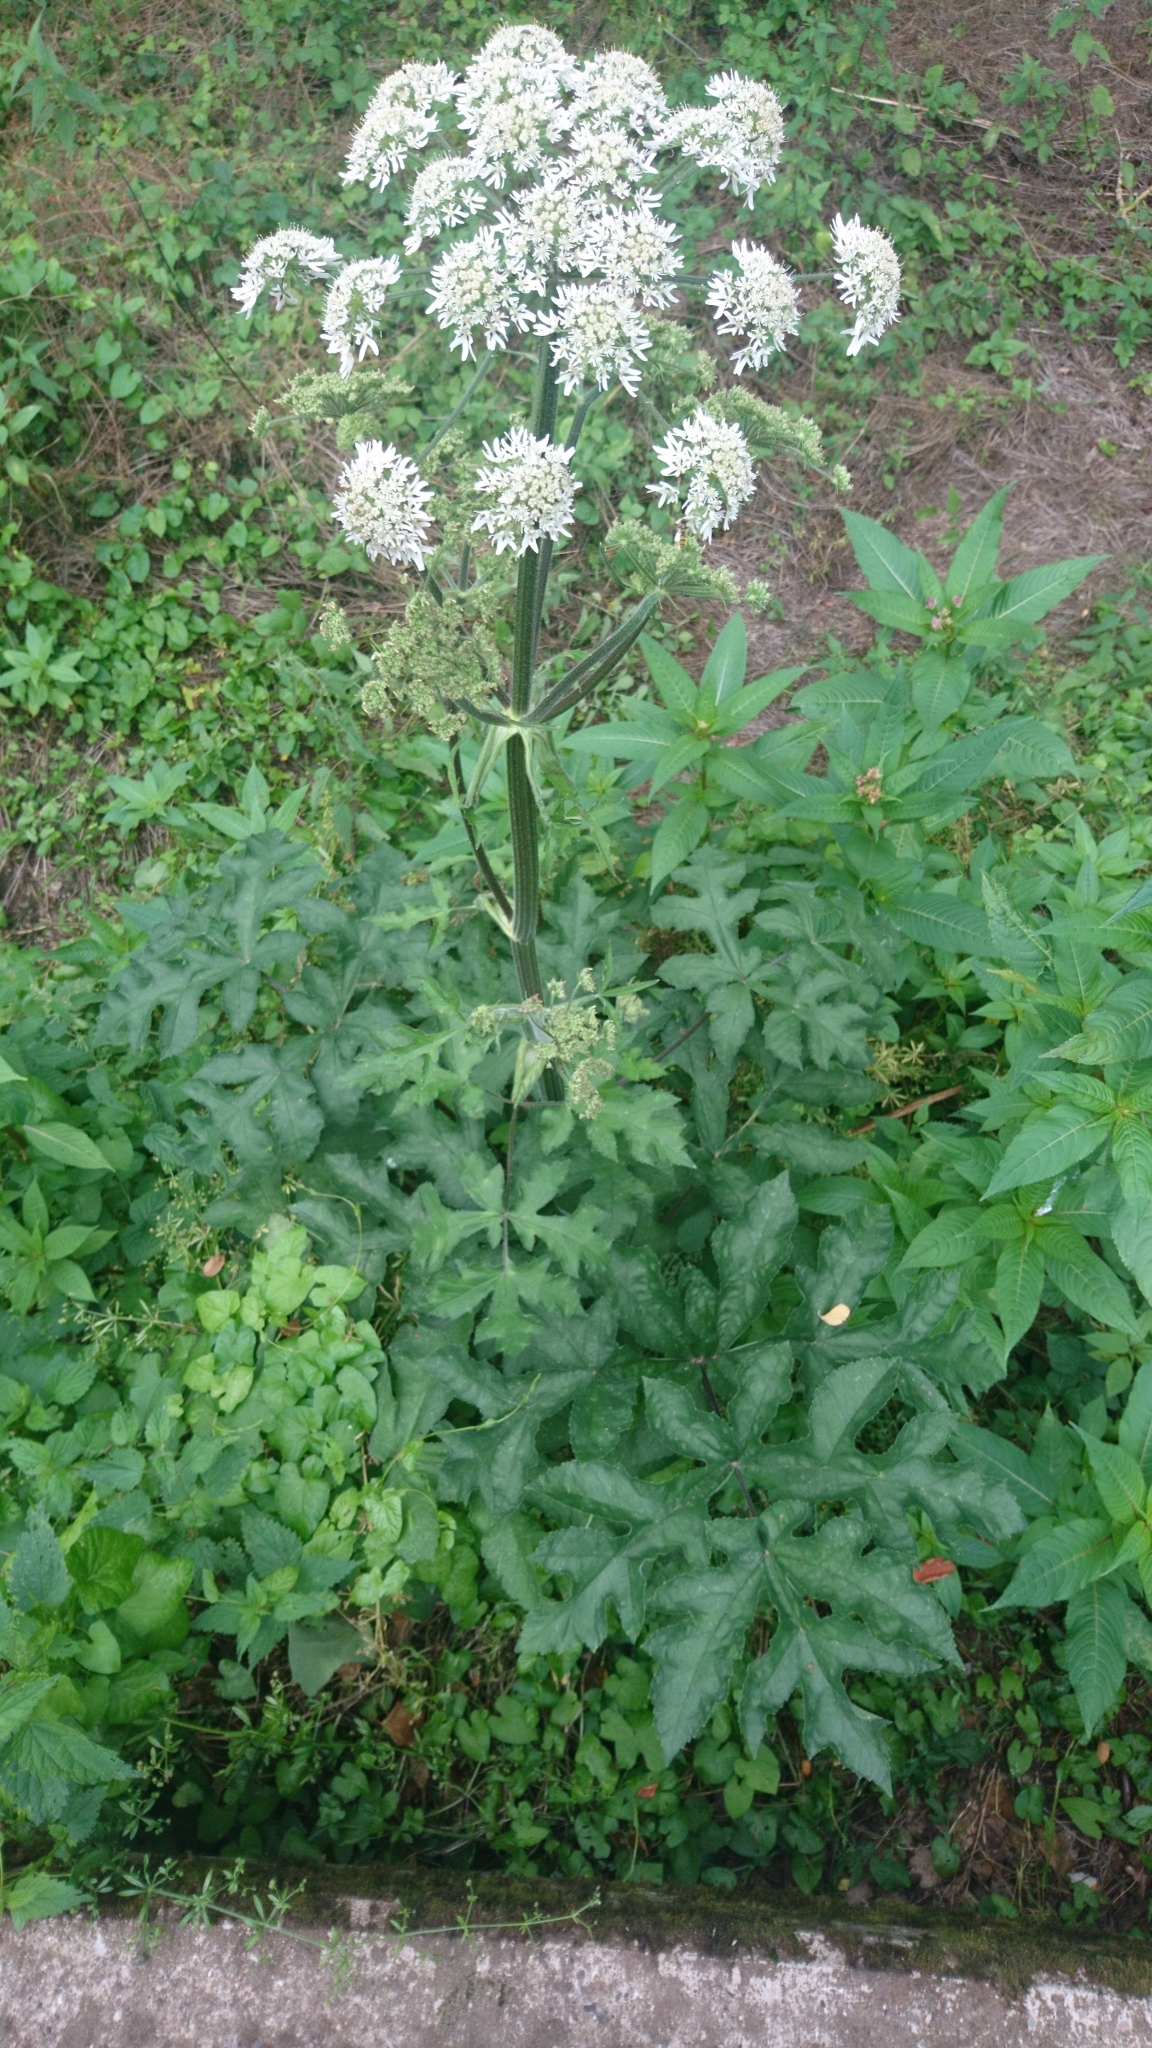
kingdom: Plantae
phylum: Tracheophyta
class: Magnoliopsida
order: Apiales
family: Apiaceae
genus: Heracleum
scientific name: Heracleum sphondylium
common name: Hogweed
